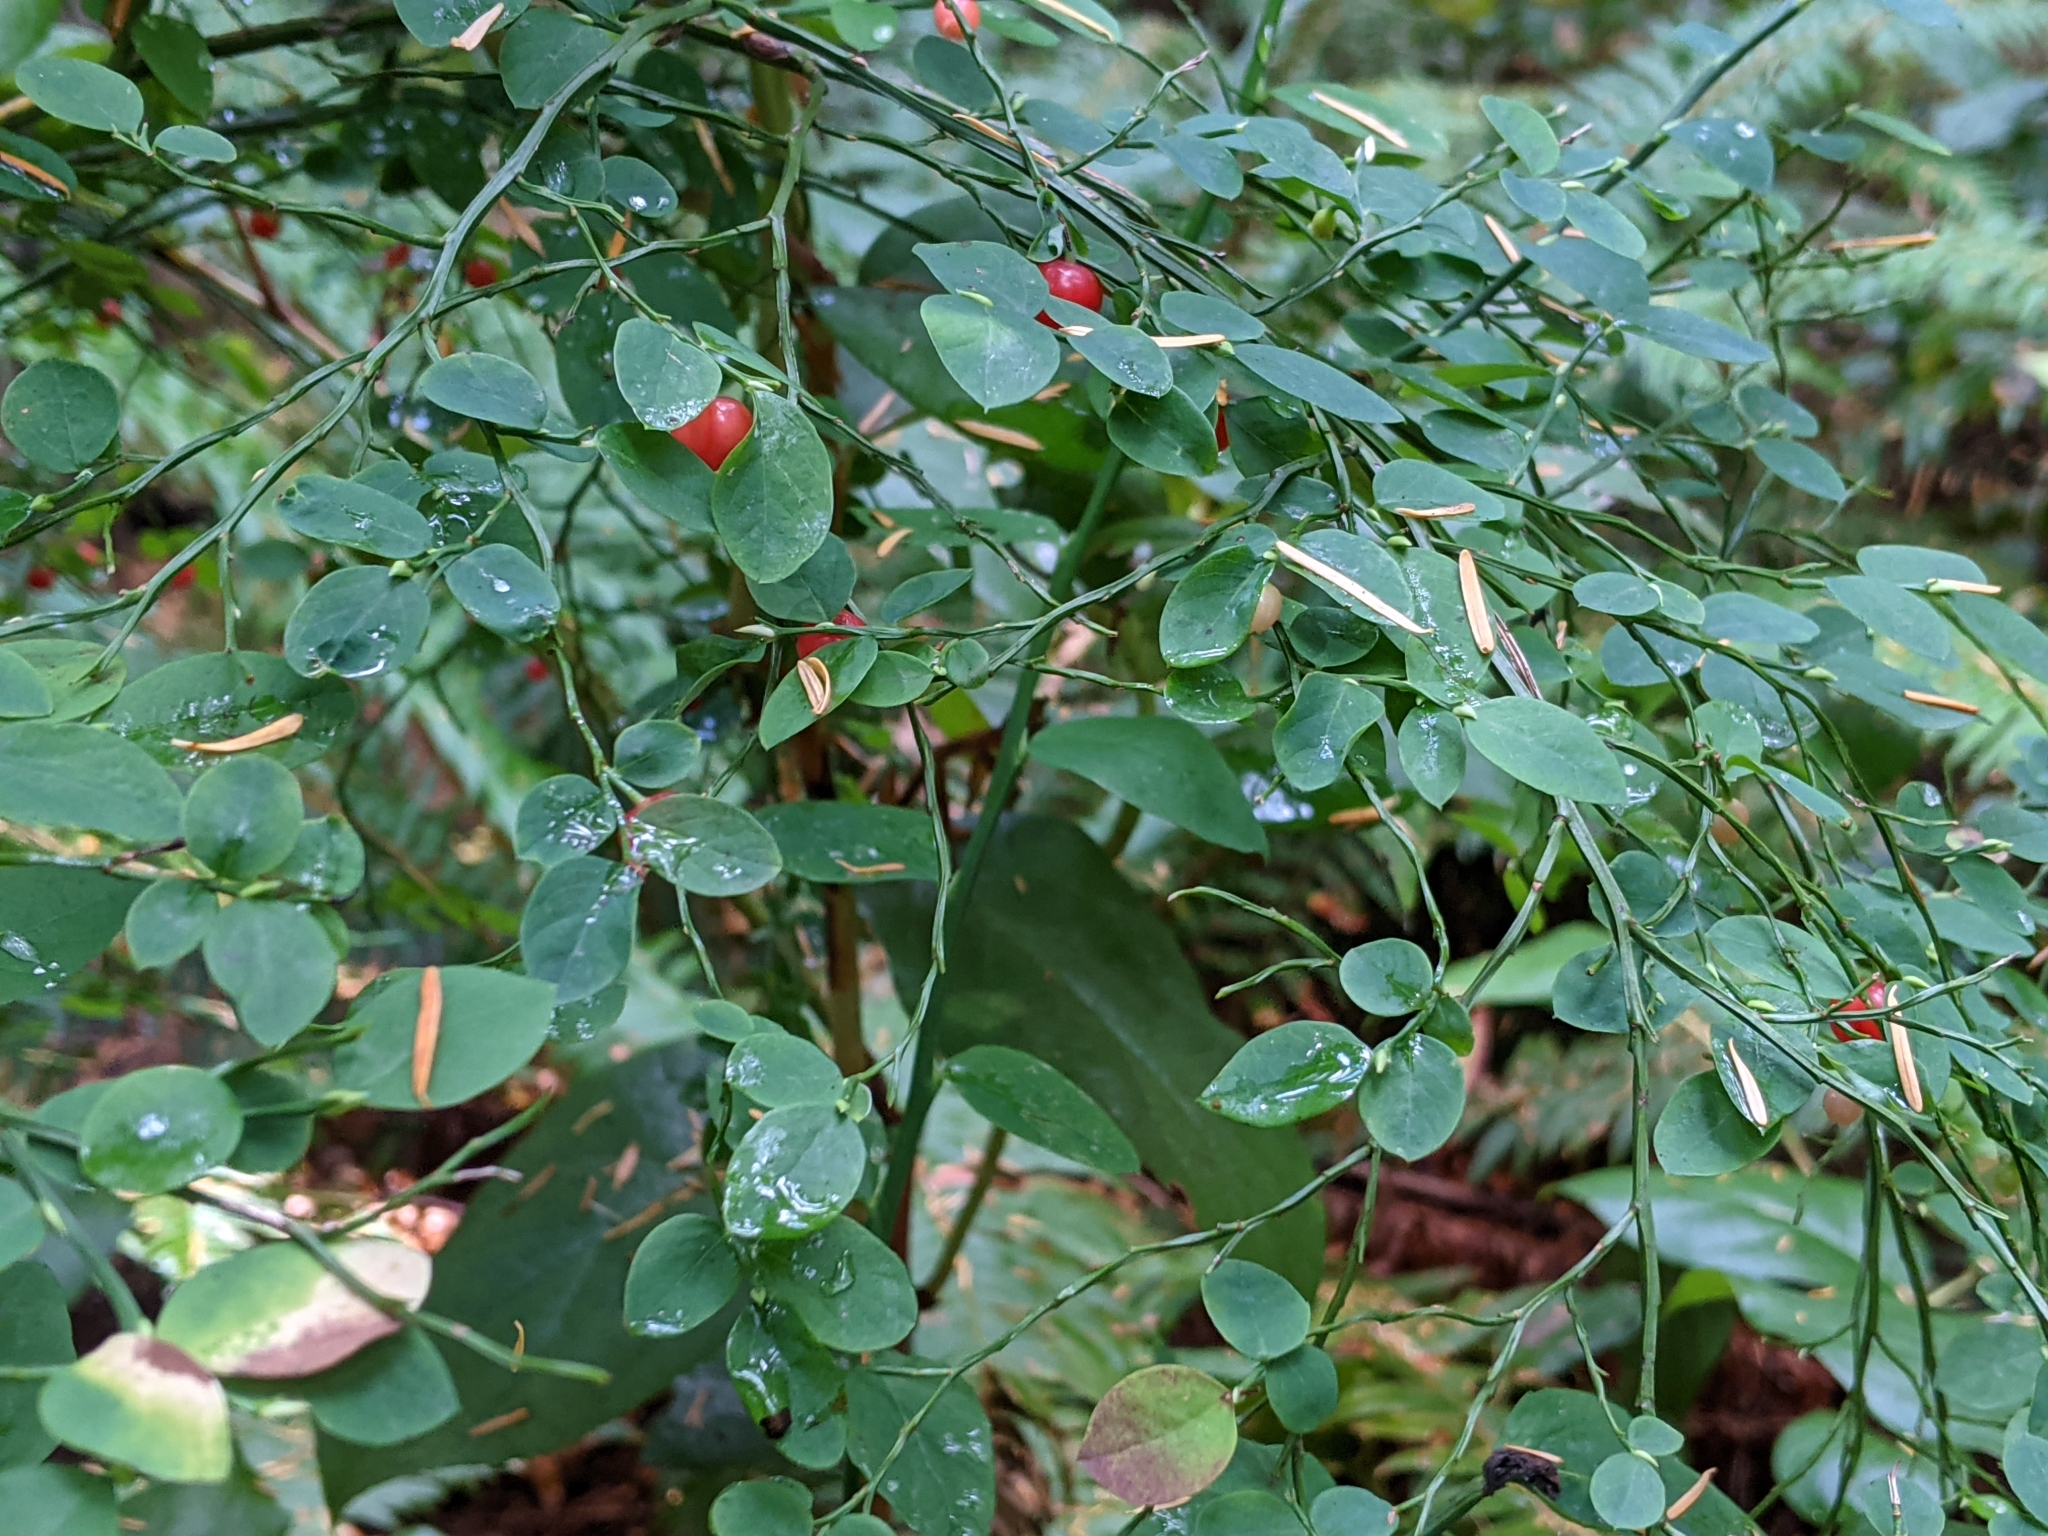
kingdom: Plantae
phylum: Tracheophyta
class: Magnoliopsida
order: Ericales
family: Ericaceae
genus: Vaccinium
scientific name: Vaccinium parvifolium
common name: Red-huckleberry
